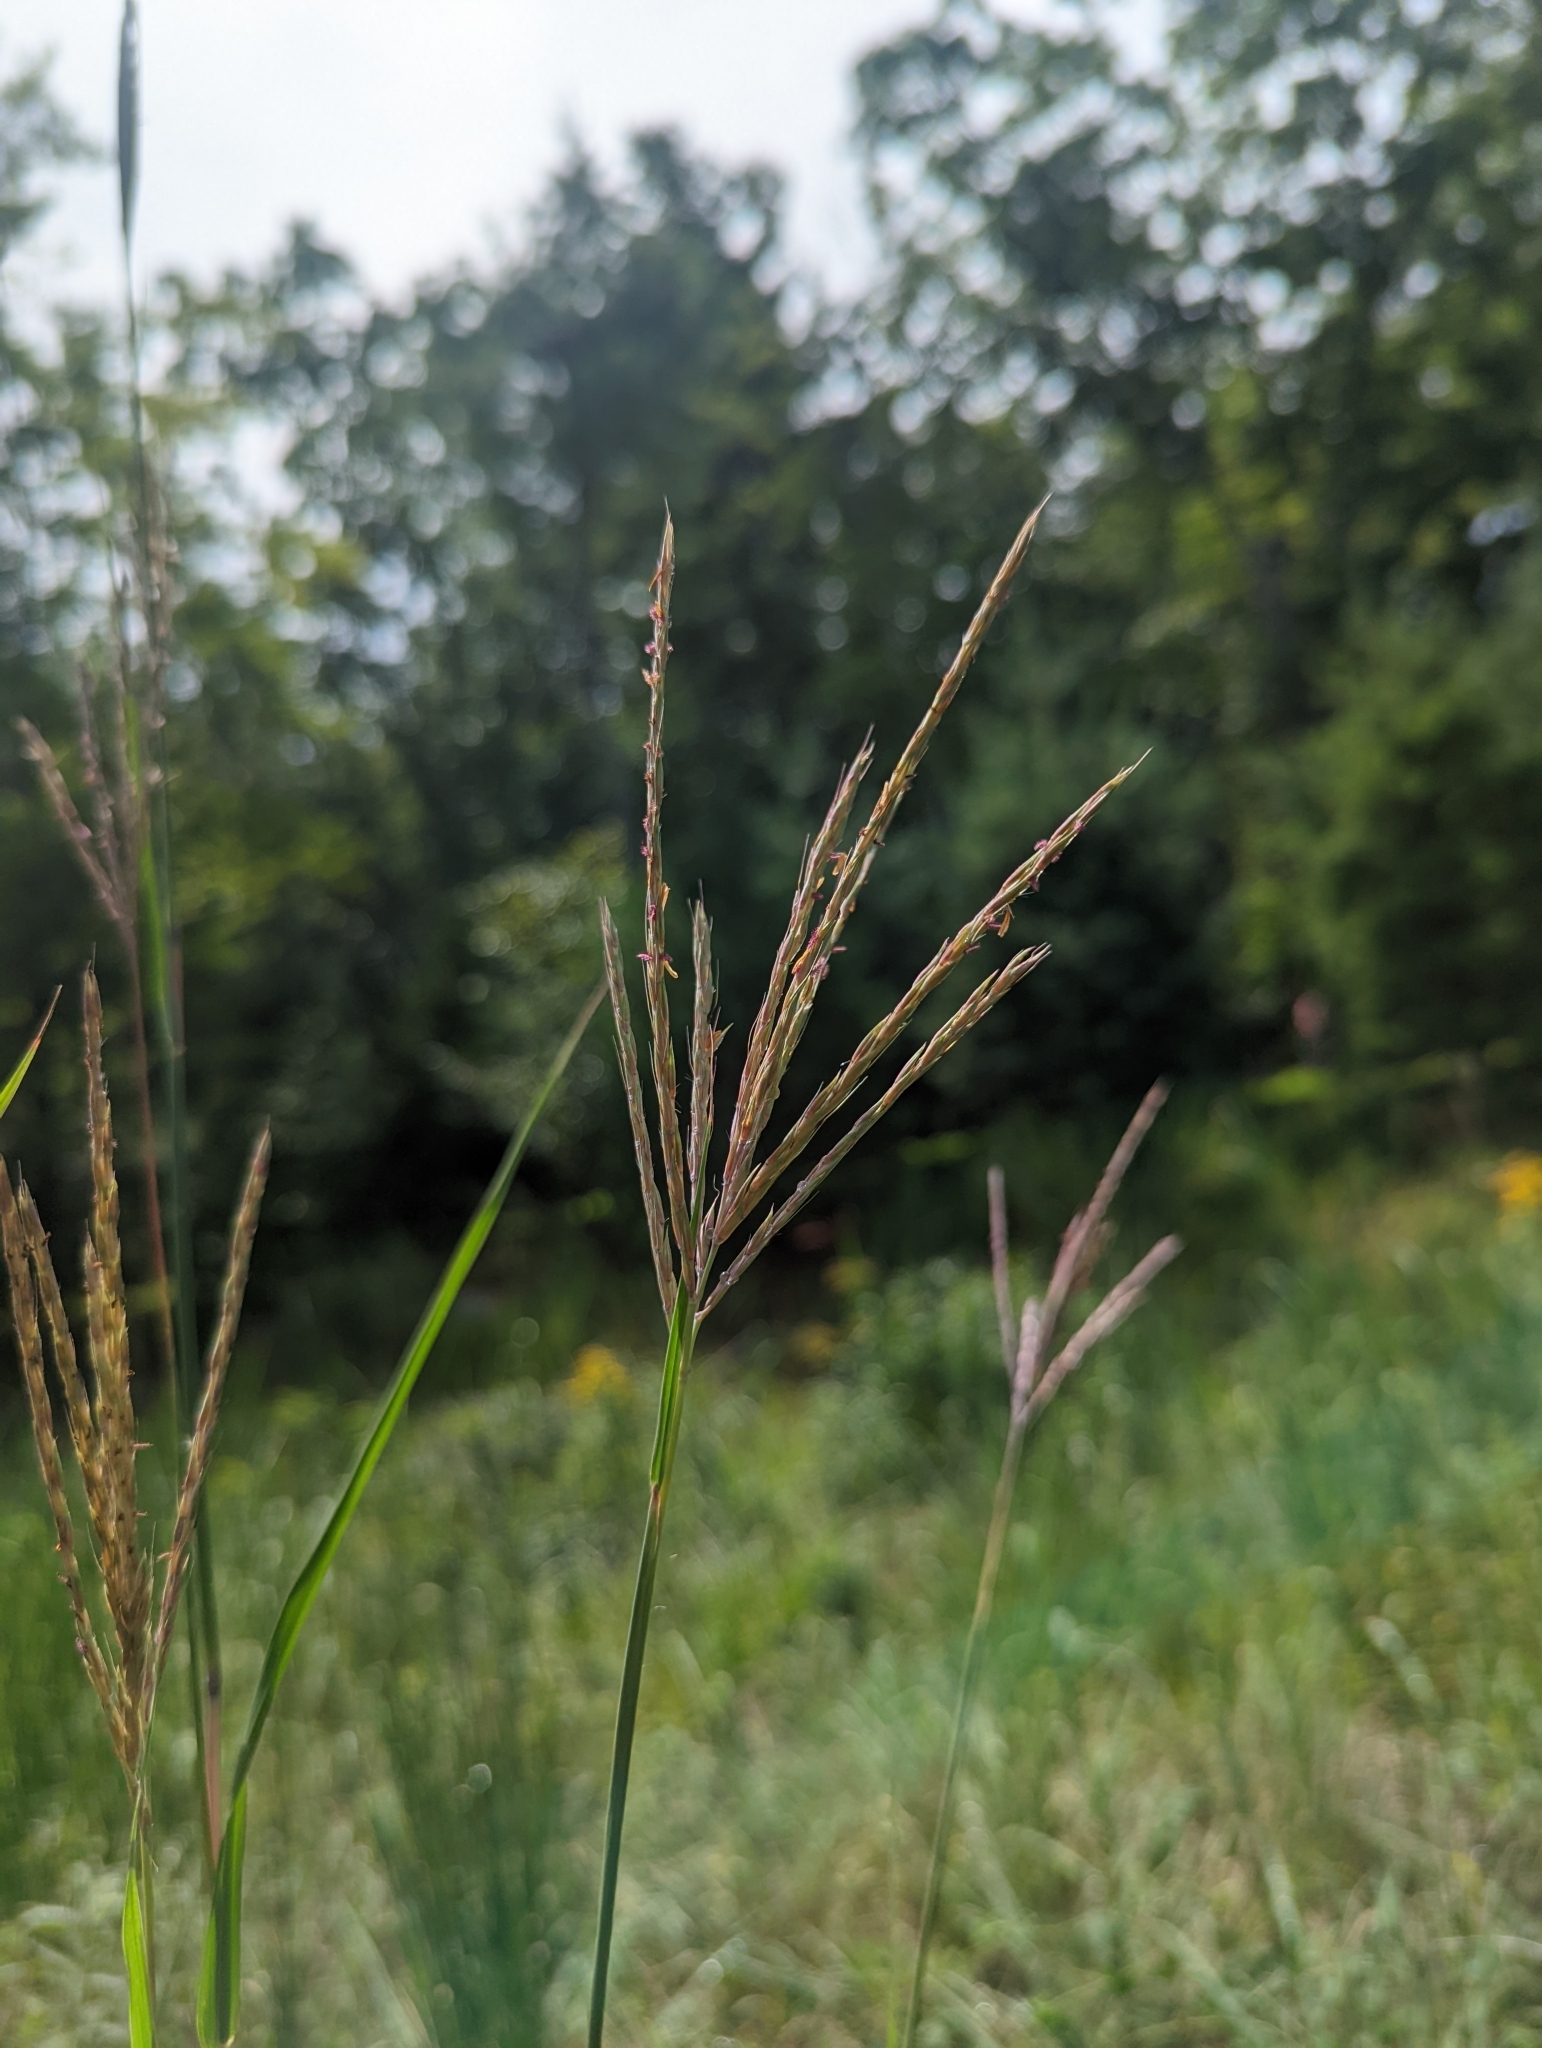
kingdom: Plantae
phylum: Tracheophyta
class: Liliopsida
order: Poales
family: Poaceae
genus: Andropogon
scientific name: Andropogon gerardi
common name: Big bluestem
